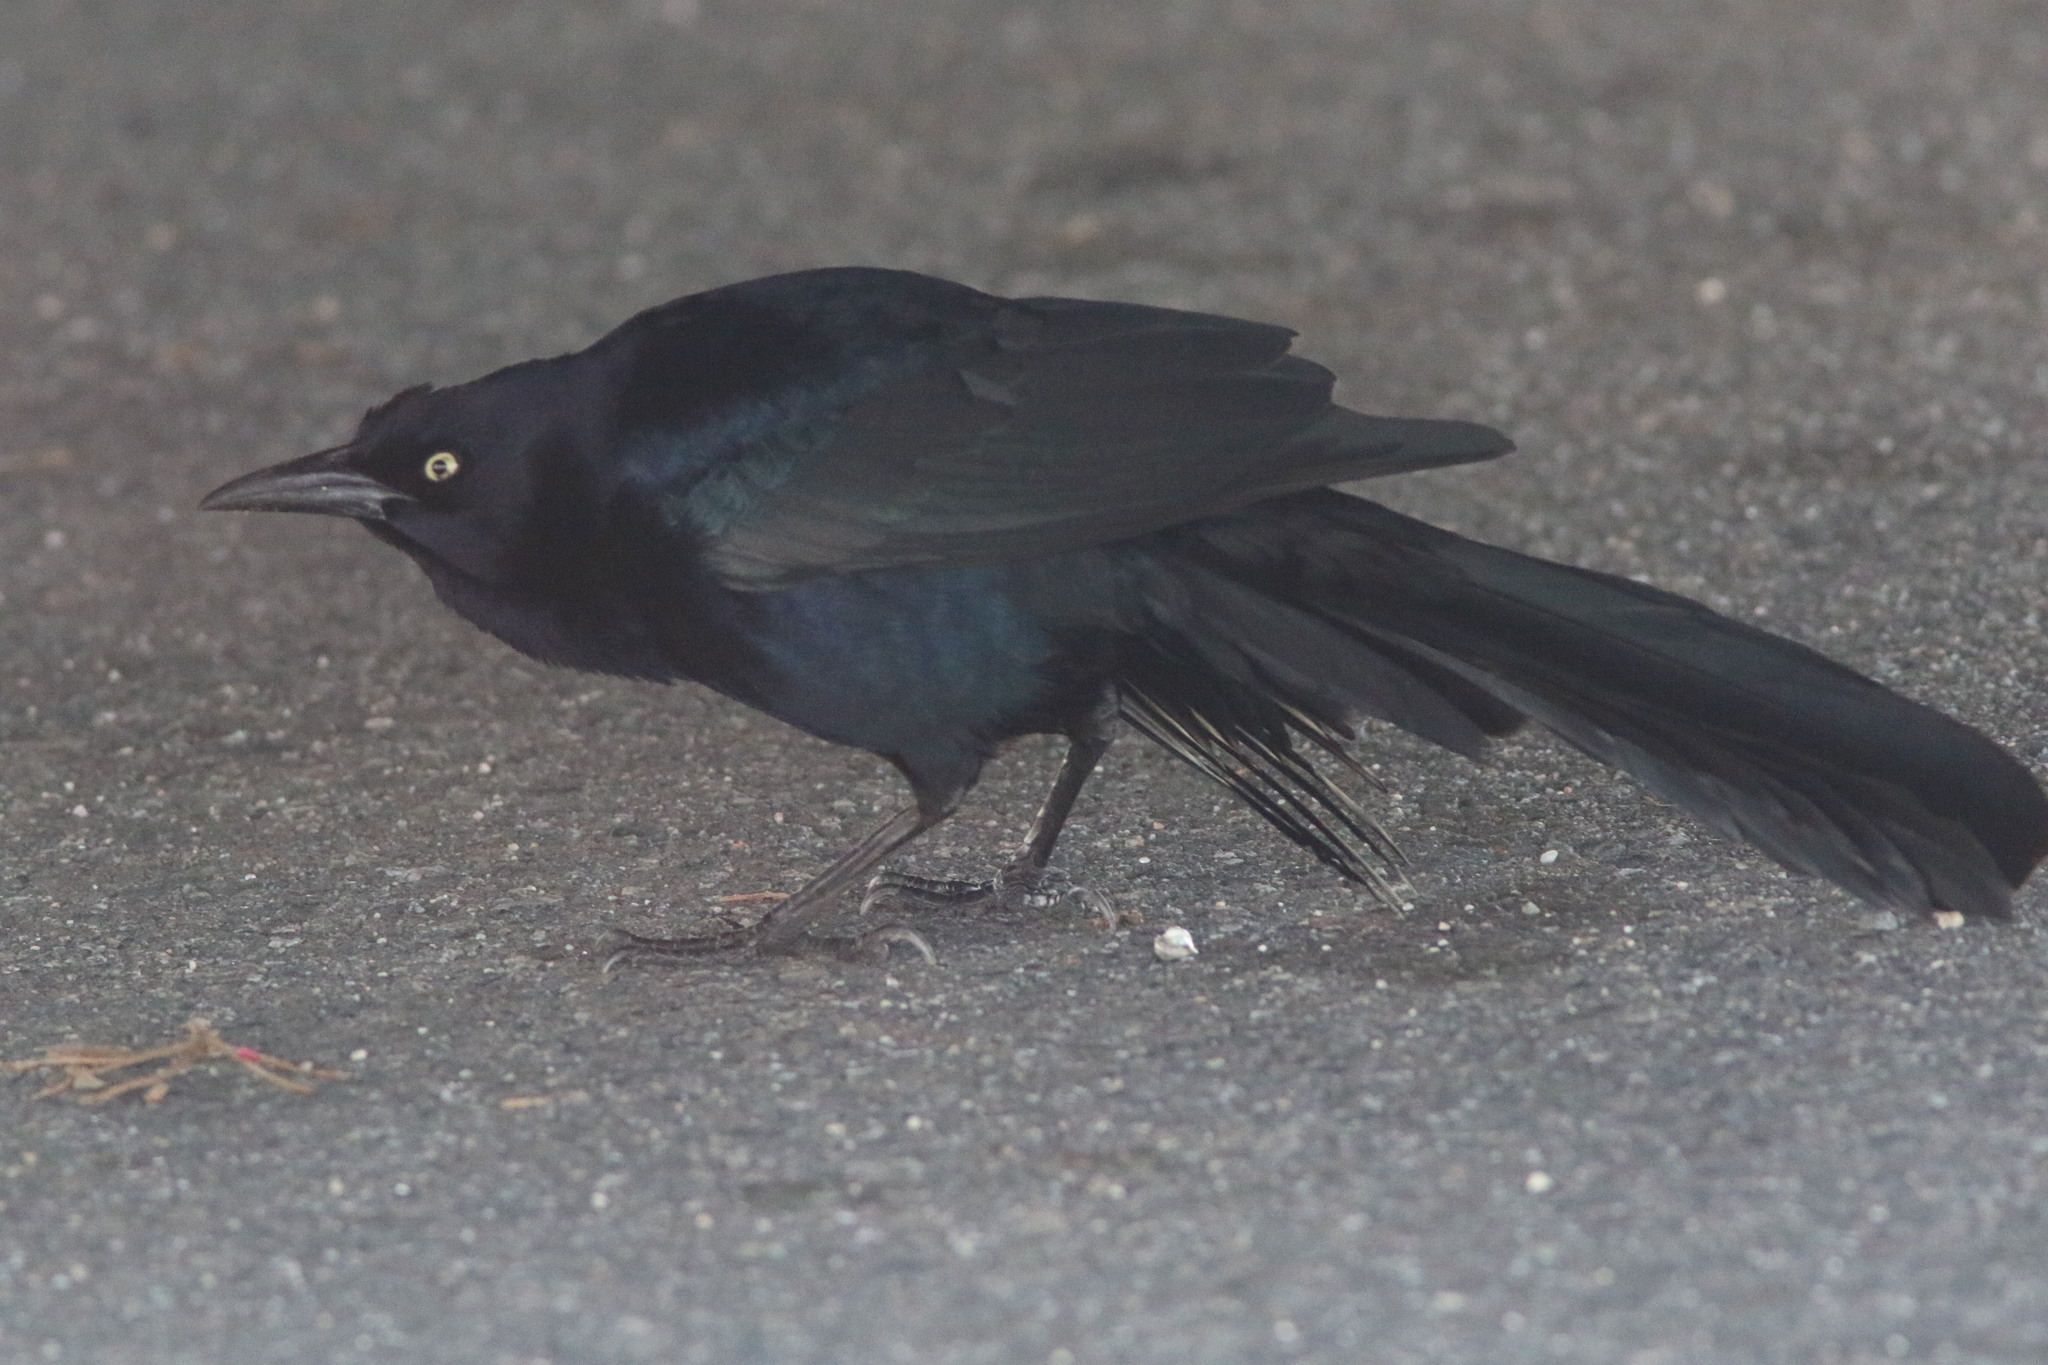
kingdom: Animalia
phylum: Chordata
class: Aves
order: Passeriformes
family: Icteridae
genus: Quiscalus
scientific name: Quiscalus mexicanus
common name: Great-tailed grackle
